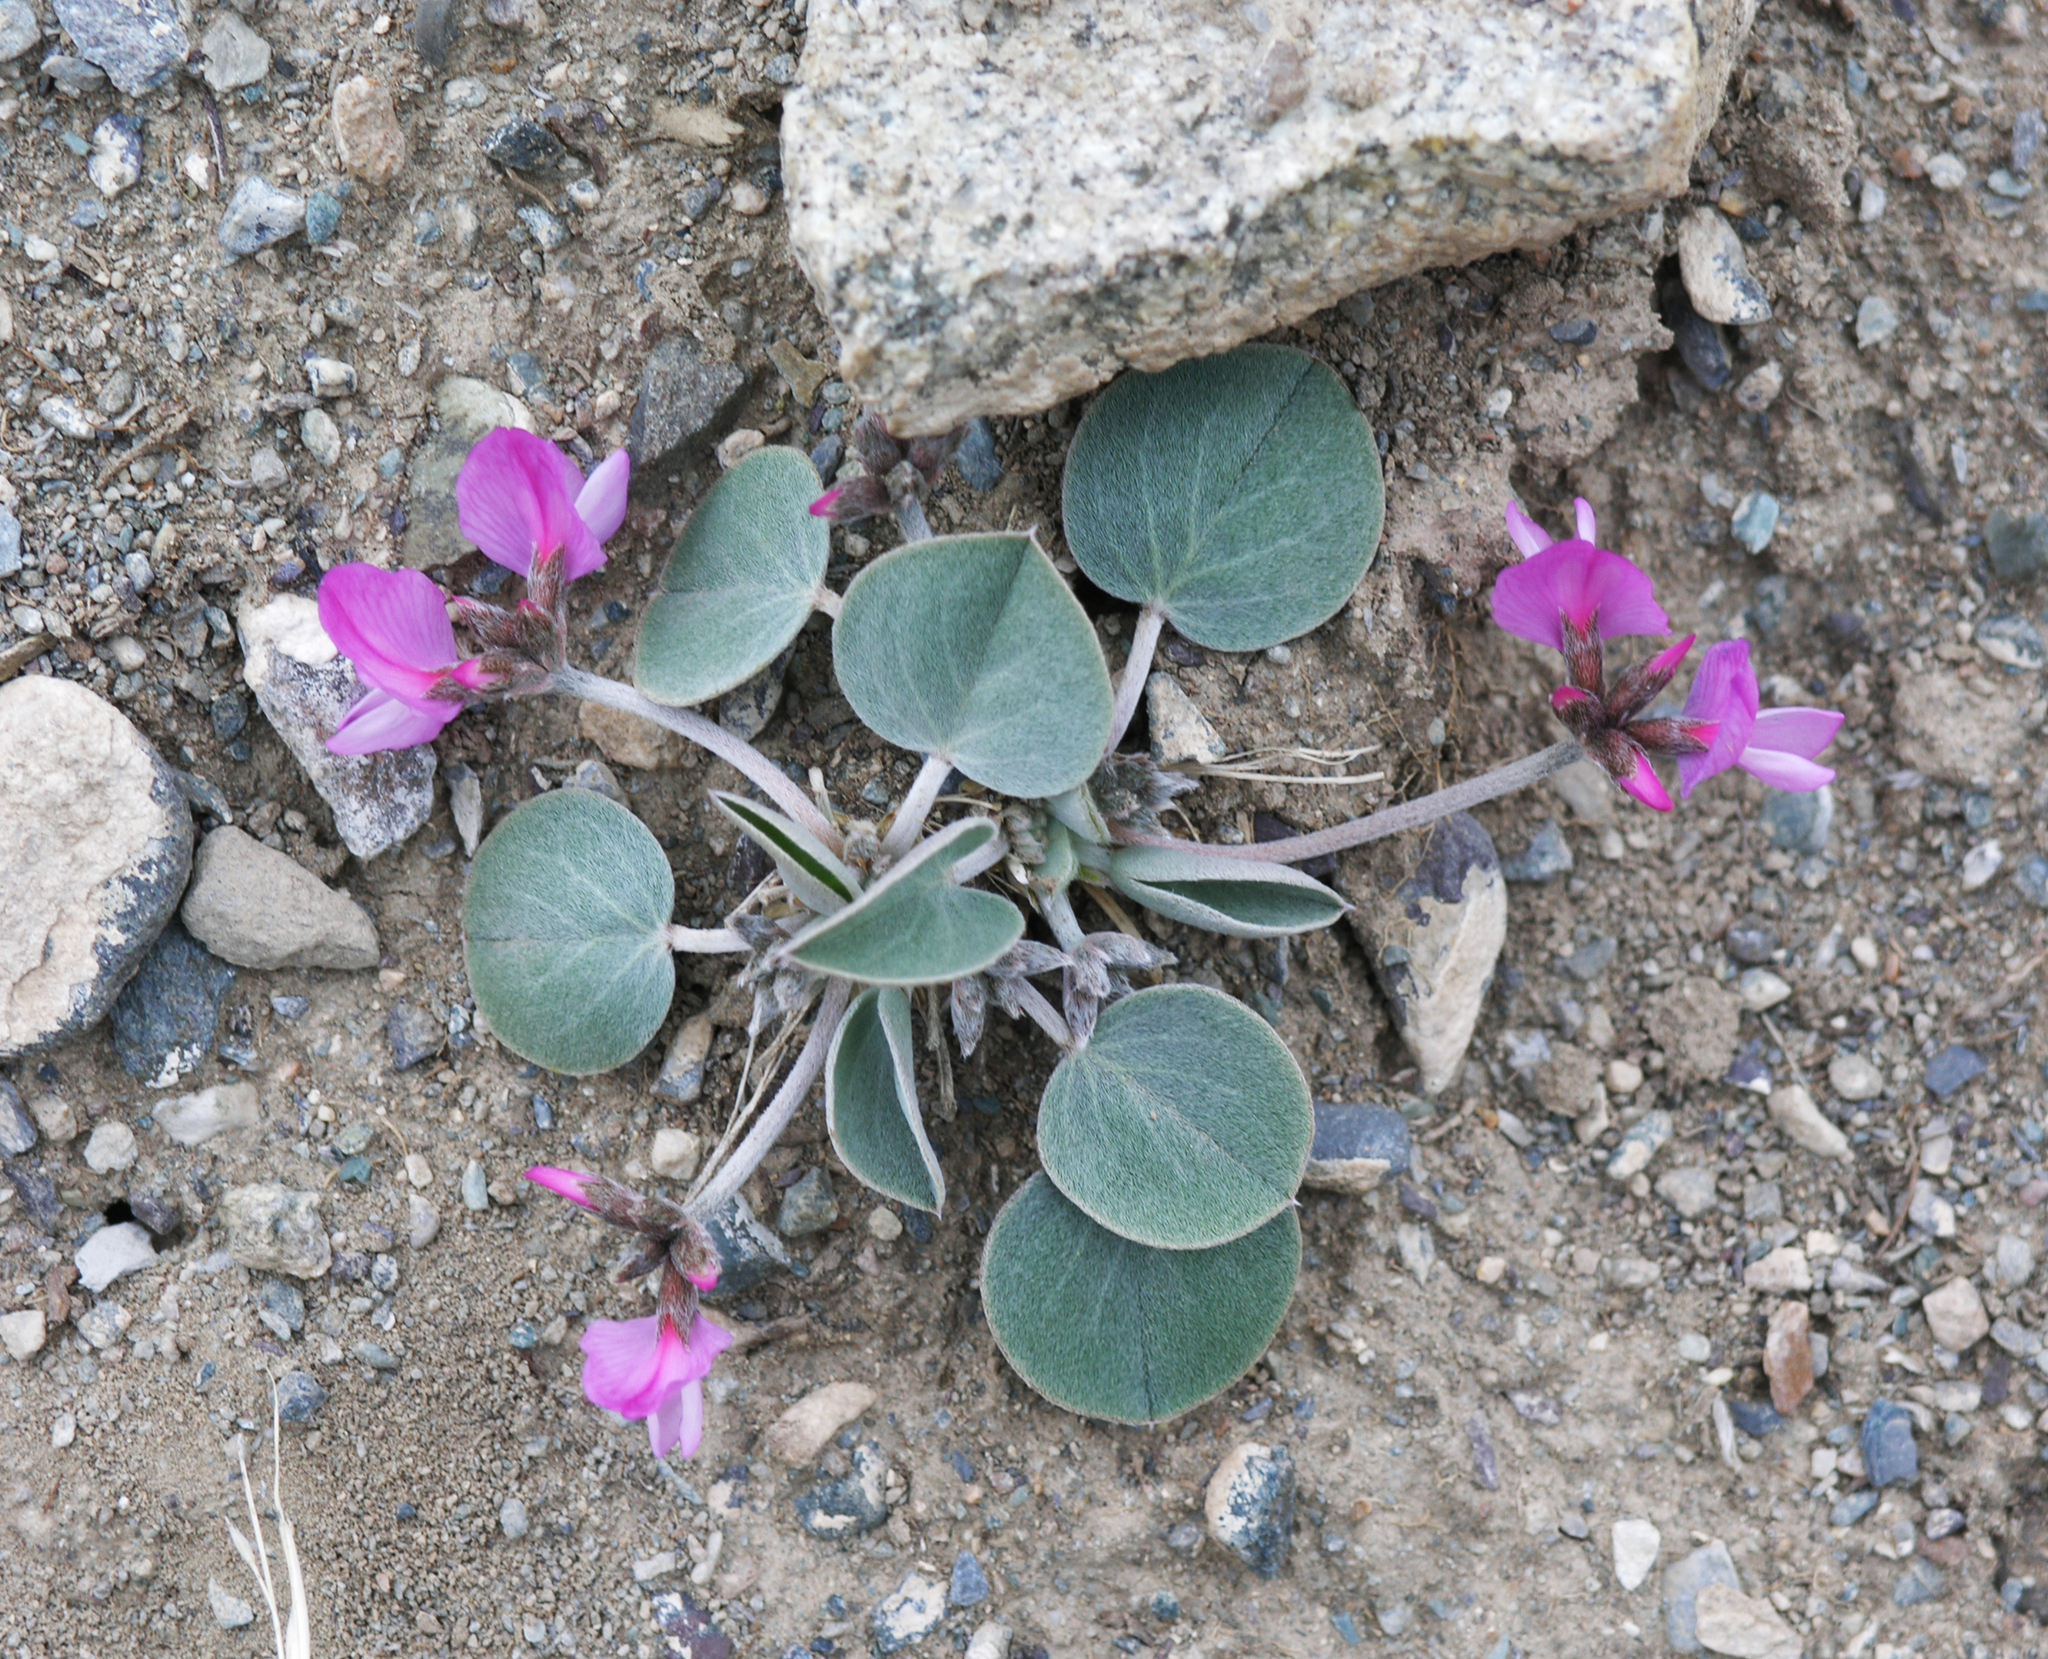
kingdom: Plantae
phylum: Tracheophyta
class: Magnoliopsida
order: Fabales
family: Fabaceae
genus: Gueldenstaedtia
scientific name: Gueldenstaedtia monophylla
